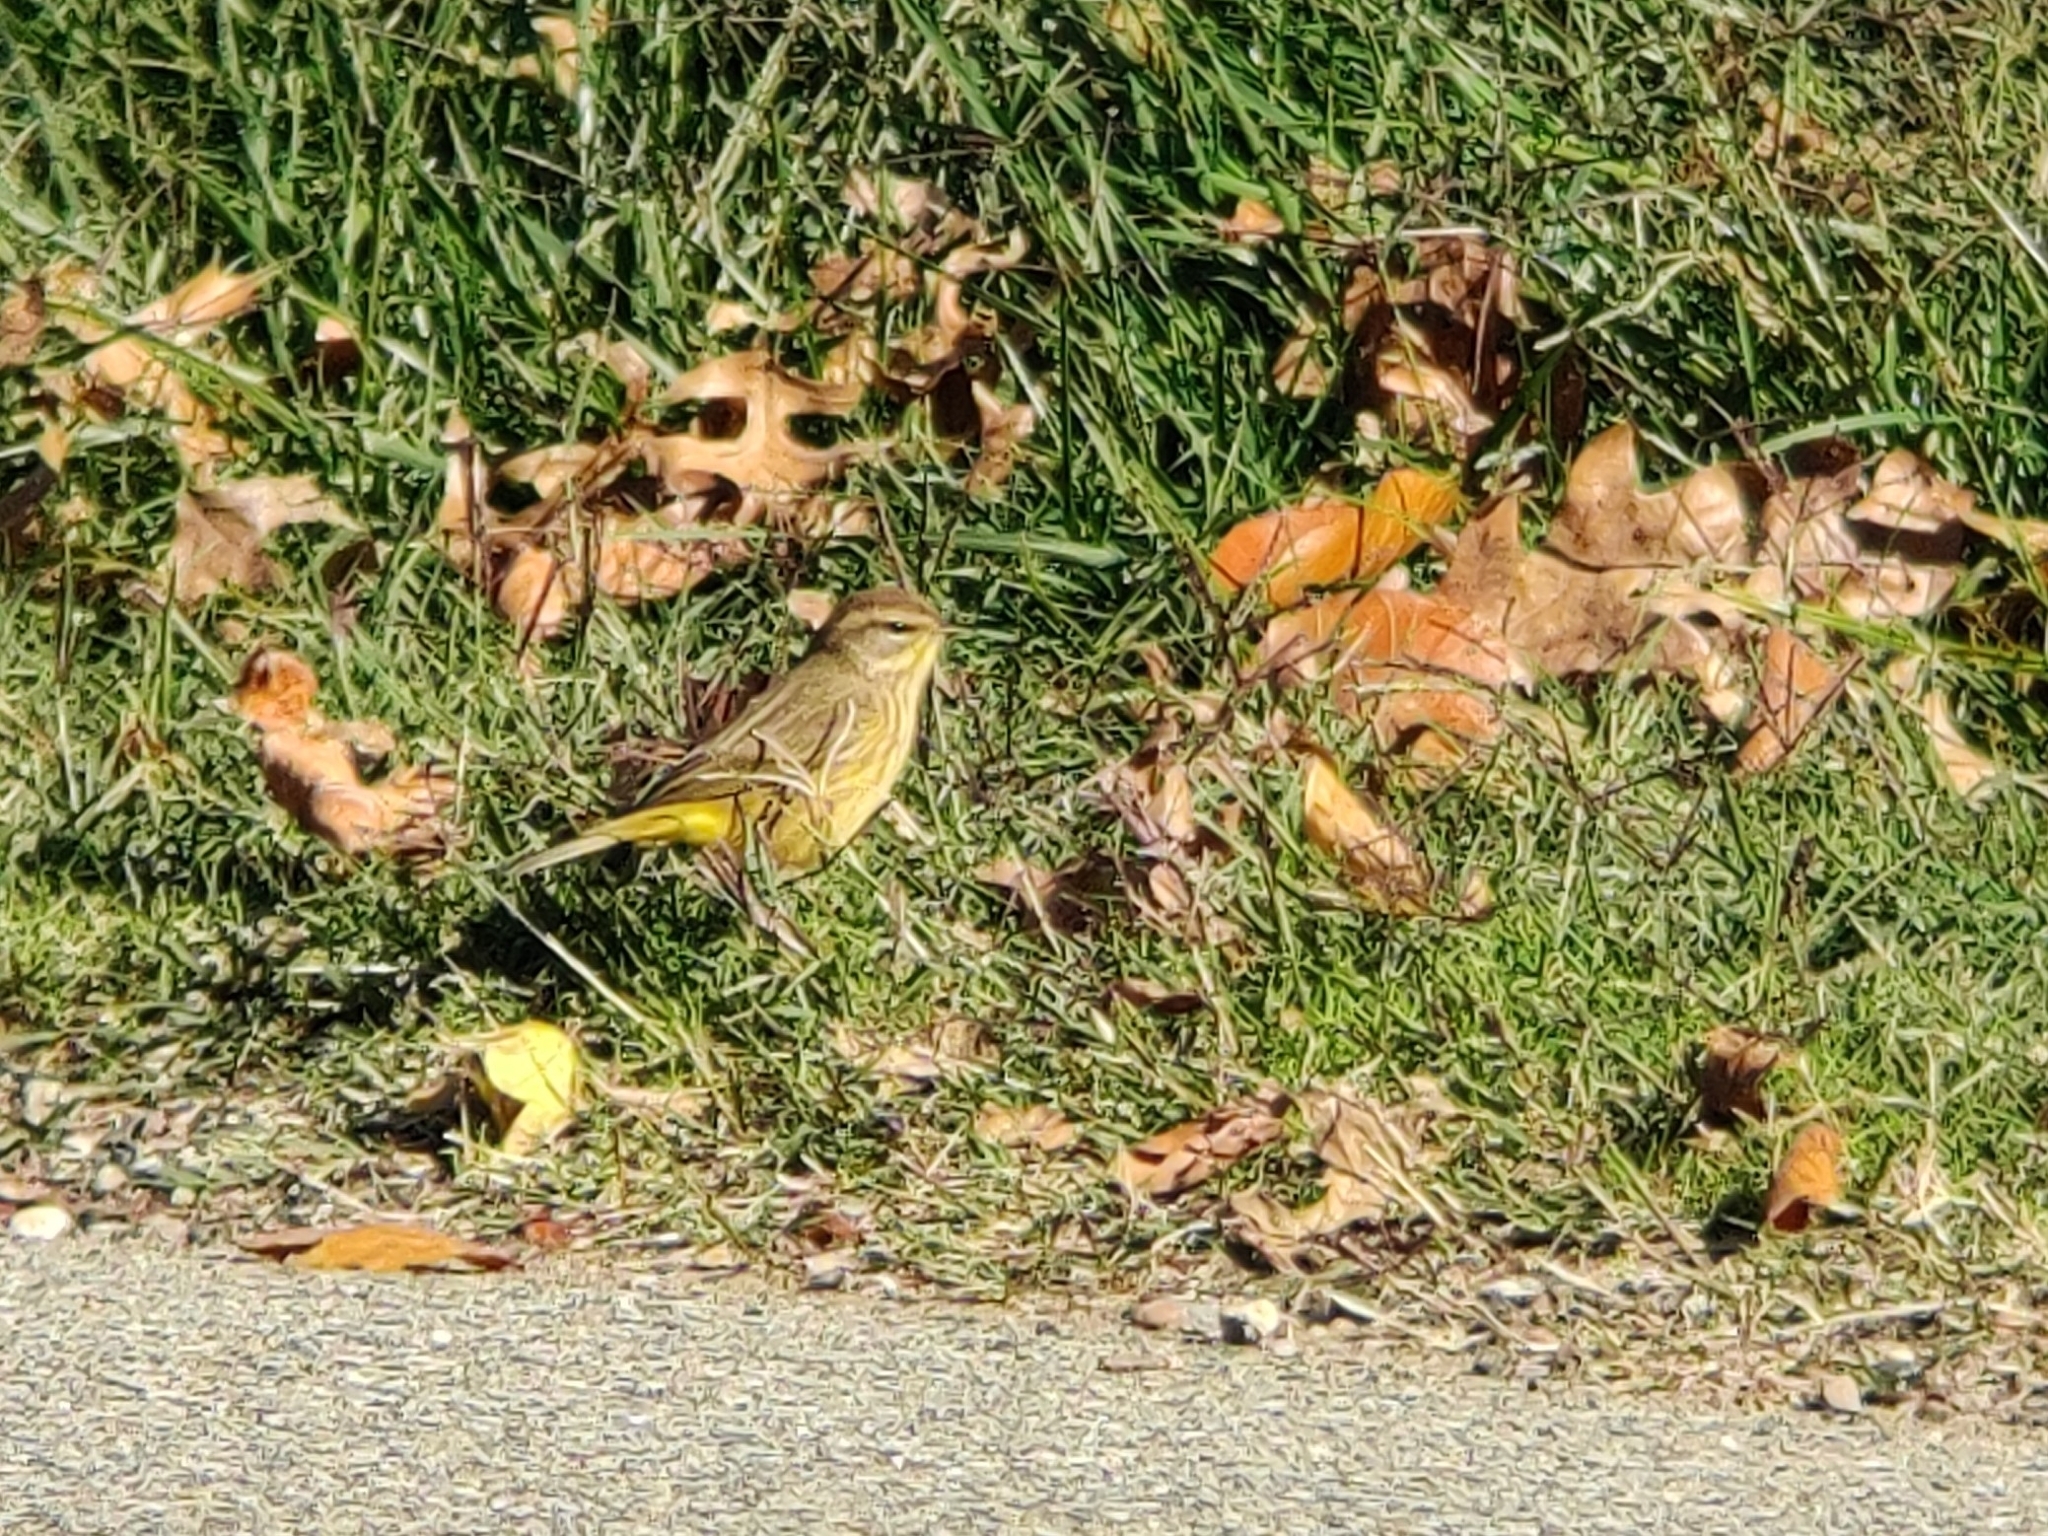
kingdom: Animalia
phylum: Chordata
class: Aves
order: Passeriformes
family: Parulidae
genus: Setophaga
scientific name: Setophaga palmarum
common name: Palm warbler
